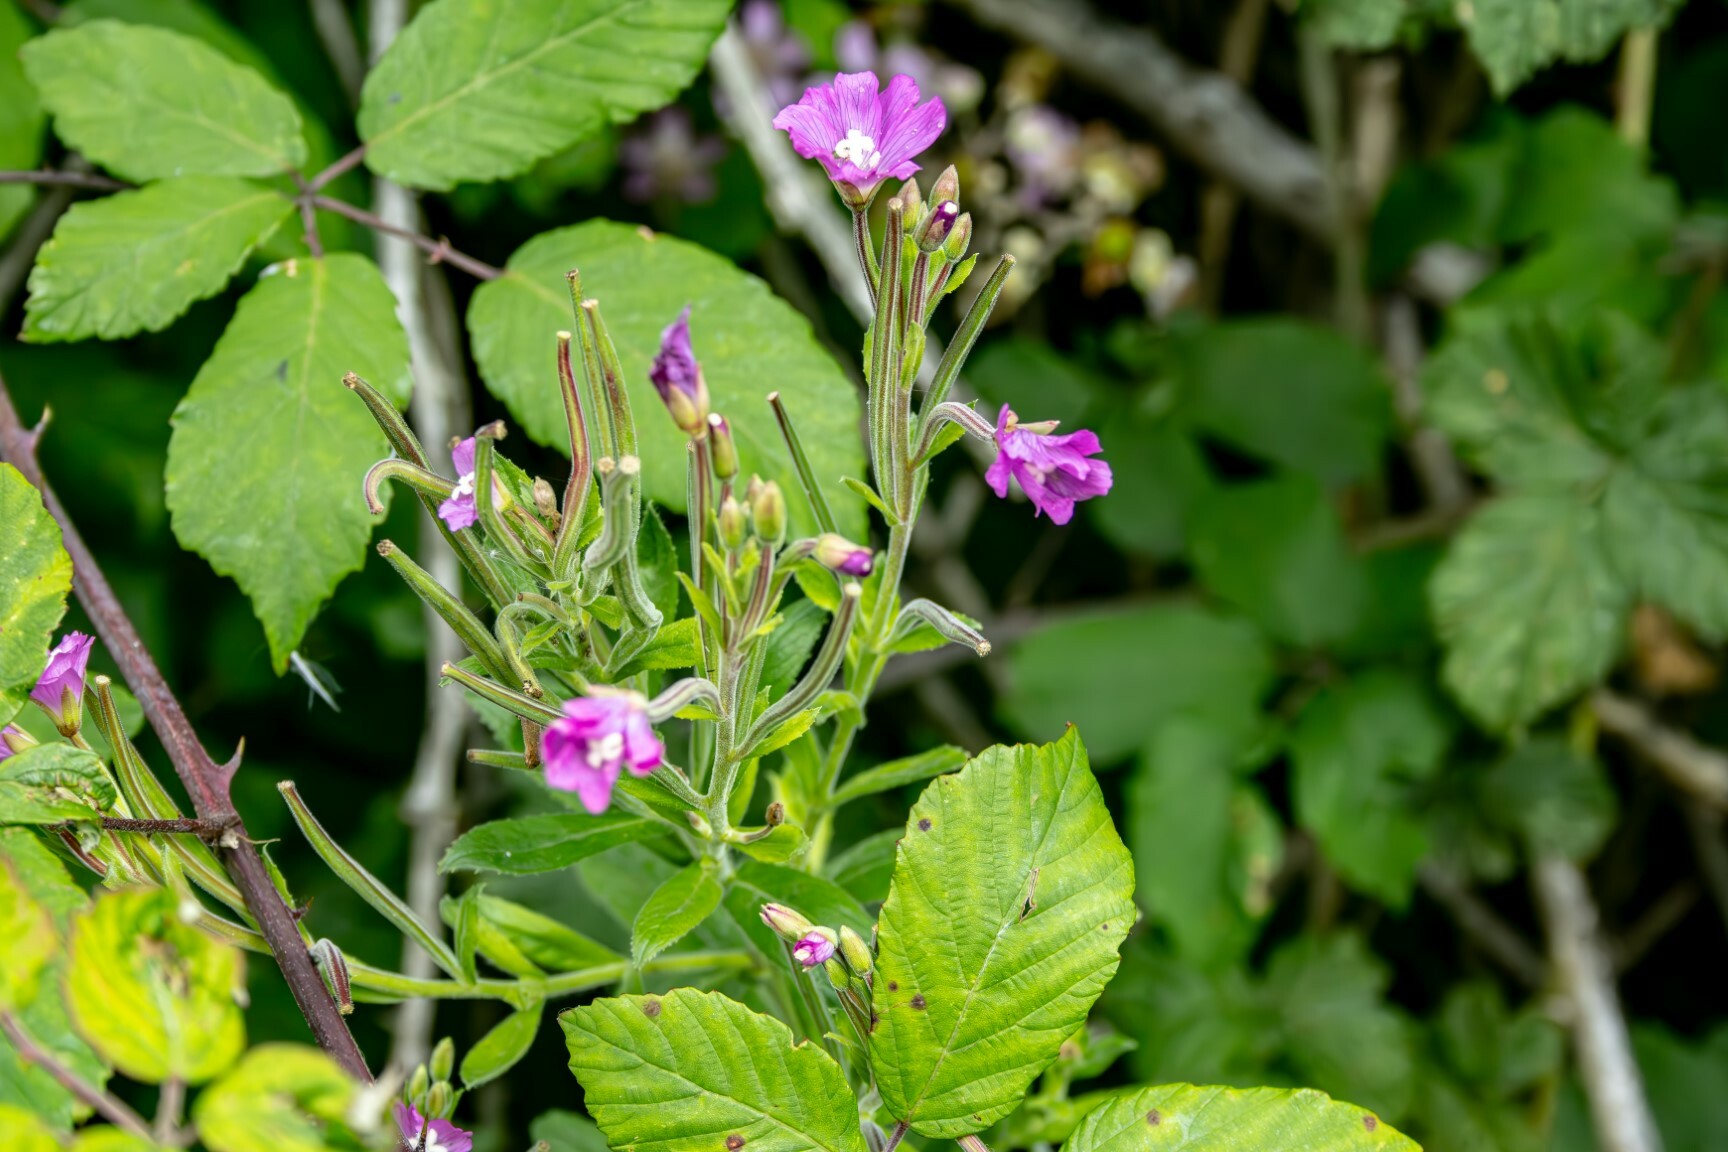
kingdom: Plantae
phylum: Tracheophyta
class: Magnoliopsida
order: Myrtales
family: Onagraceae
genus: Epilobium
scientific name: Epilobium hirsutum
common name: Great willowherb
